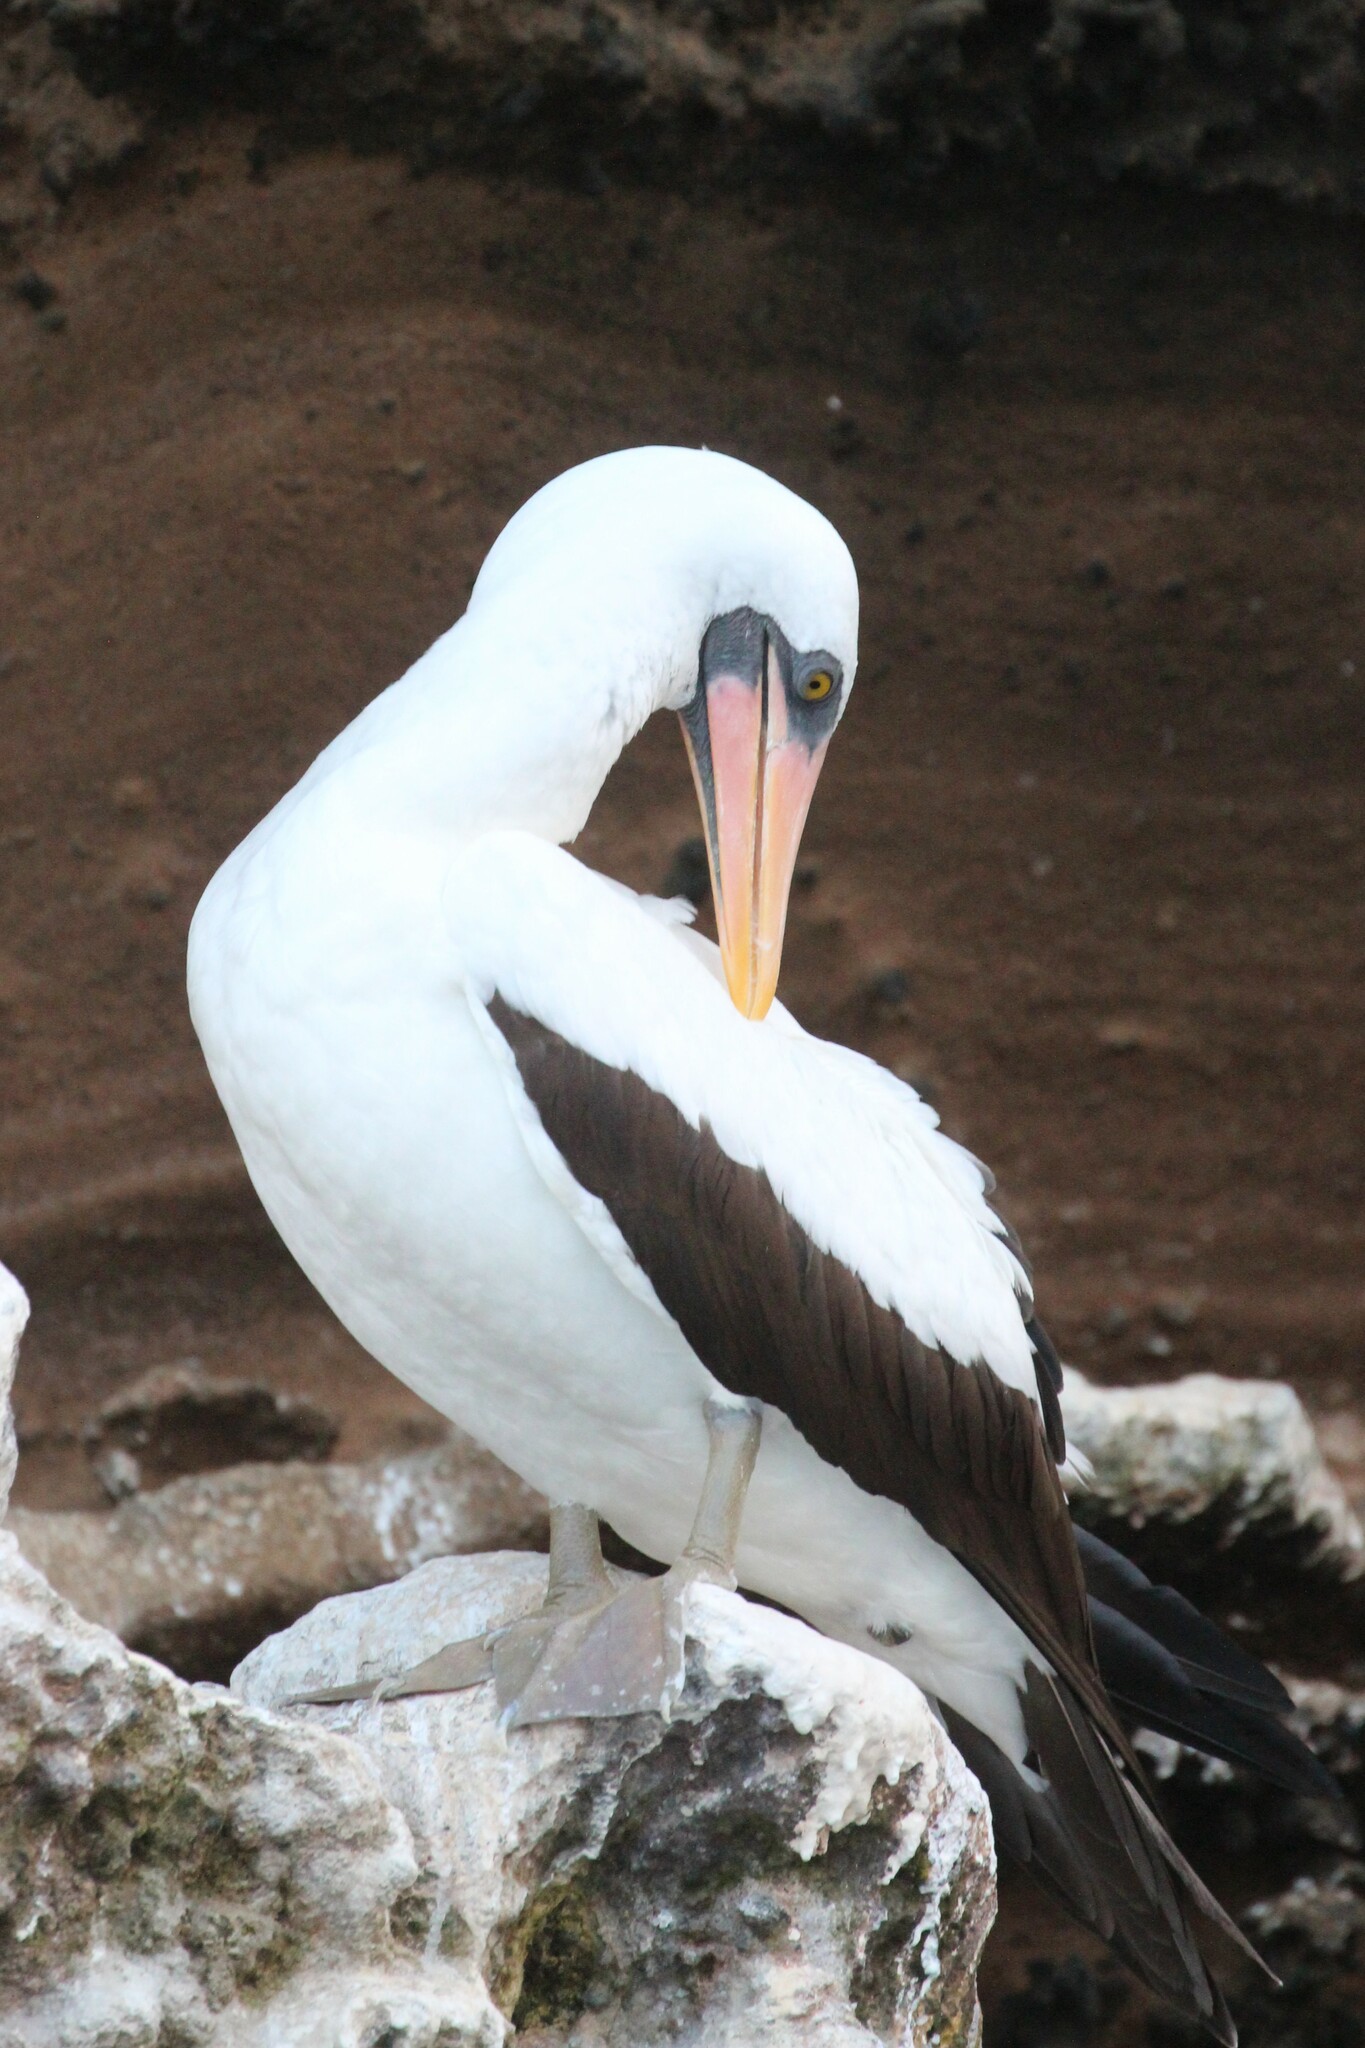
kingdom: Animalia
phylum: Chordata
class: Aves
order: Suliformes
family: Sulidae
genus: Sula
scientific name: Sula granti
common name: Nazca booby
